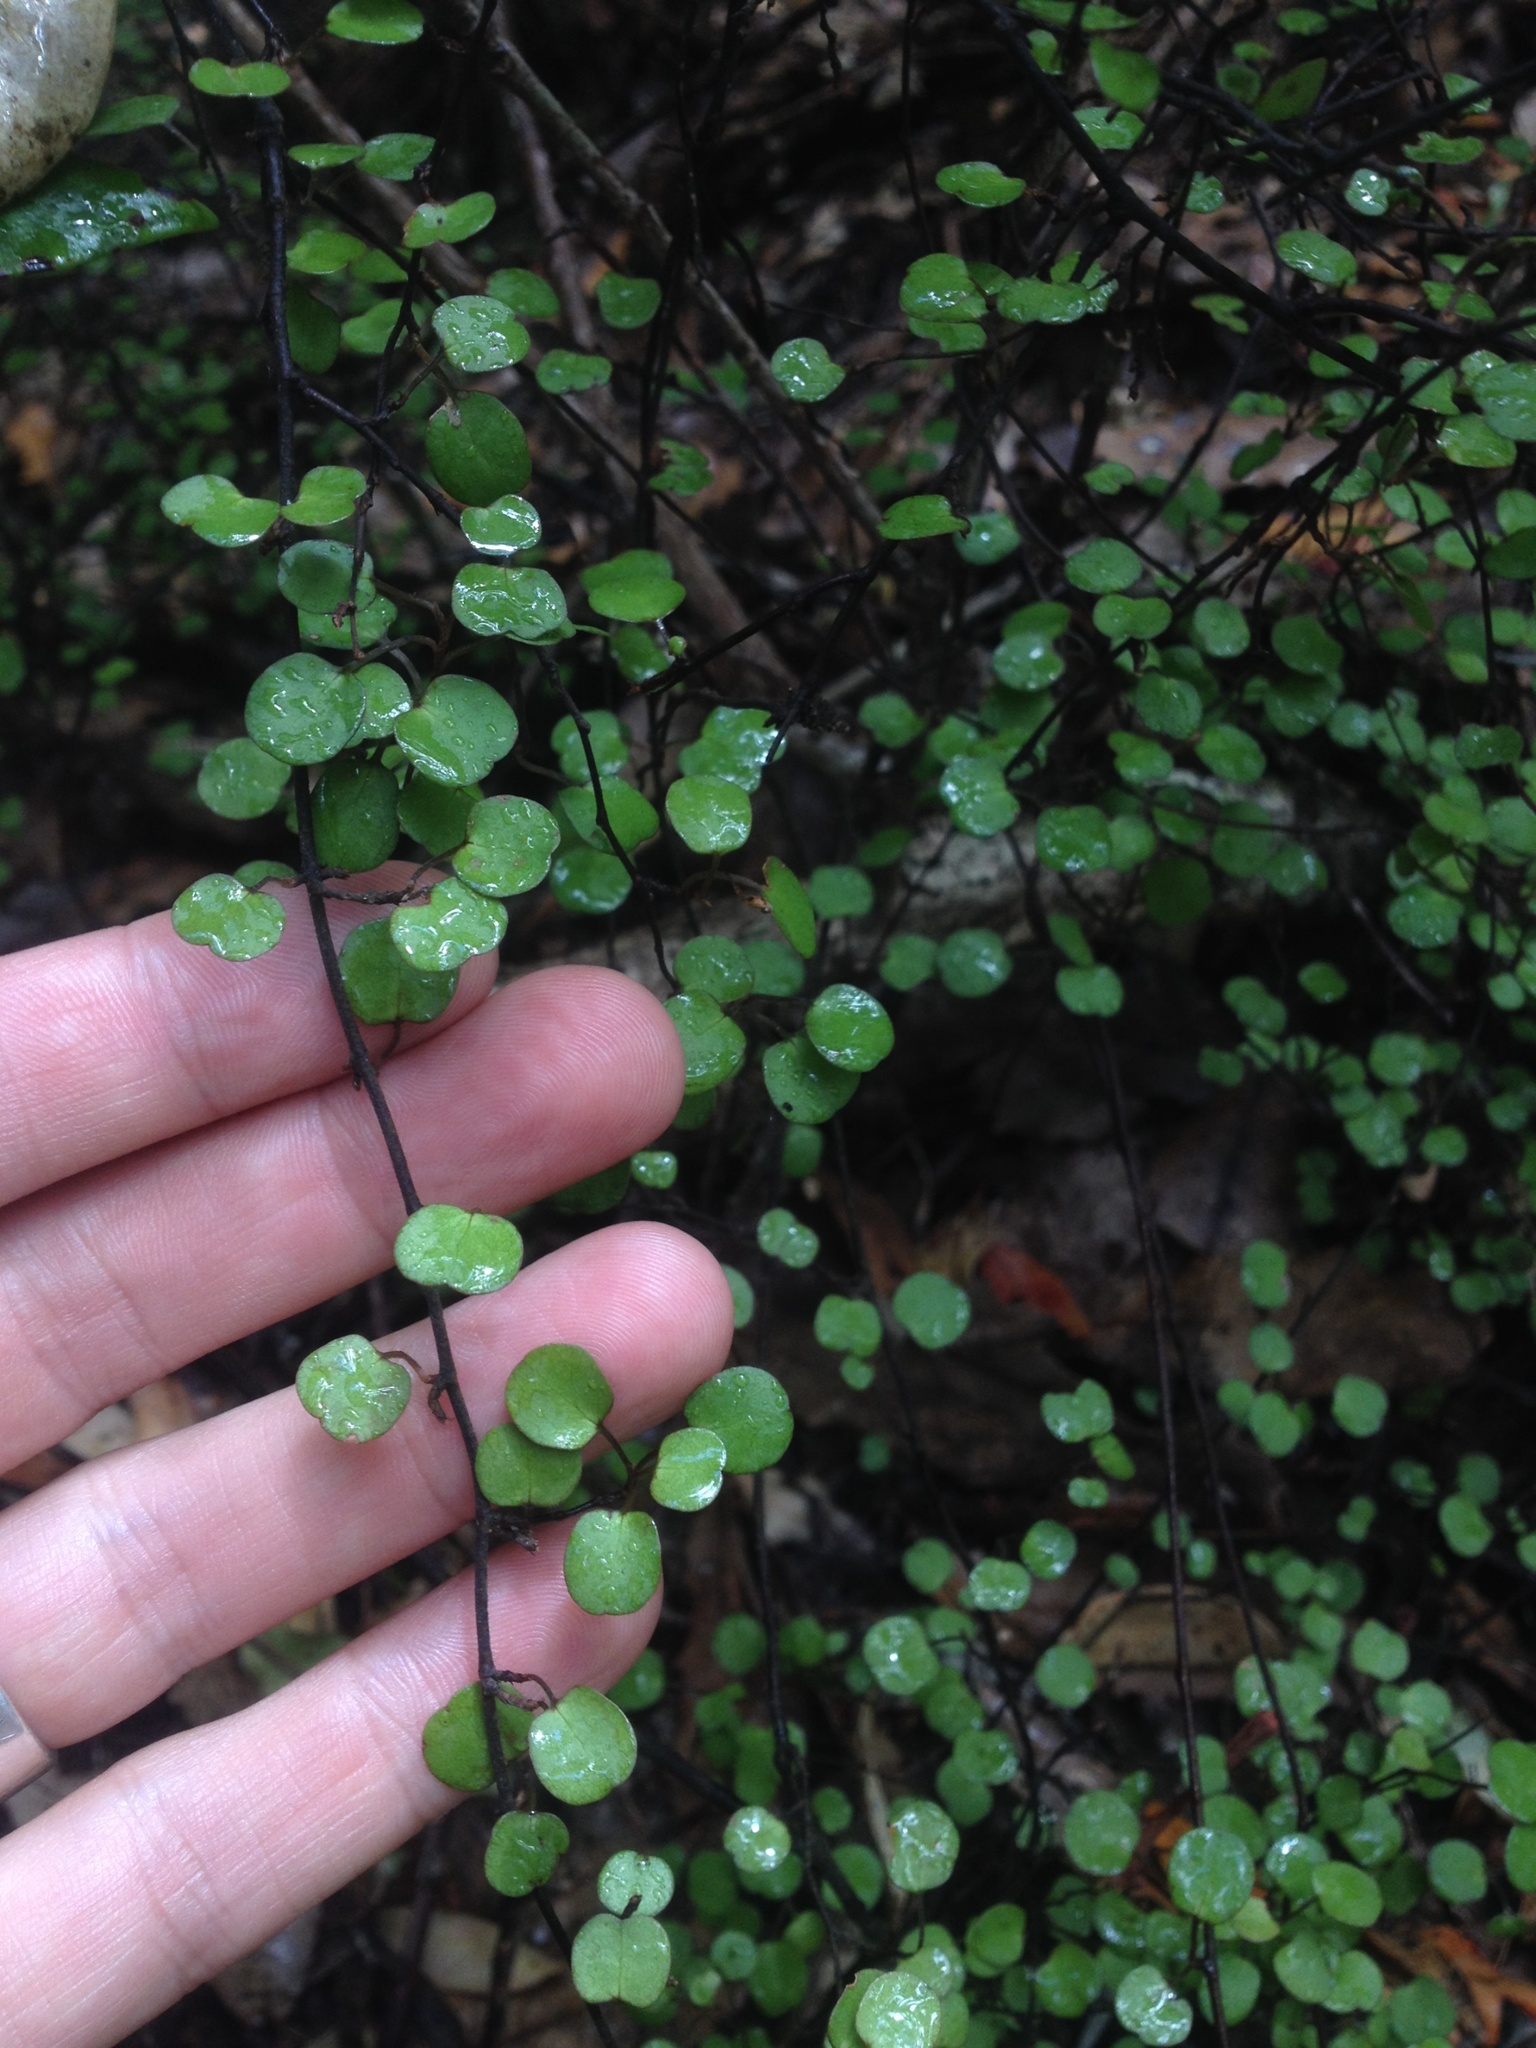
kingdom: Plantae
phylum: Tracheophyta
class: Magnoliopsida
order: Caryophyllales
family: Polygonaceae
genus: Muehlenbeckia
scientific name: Muehlenbeckia complexa
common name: Wireplant
